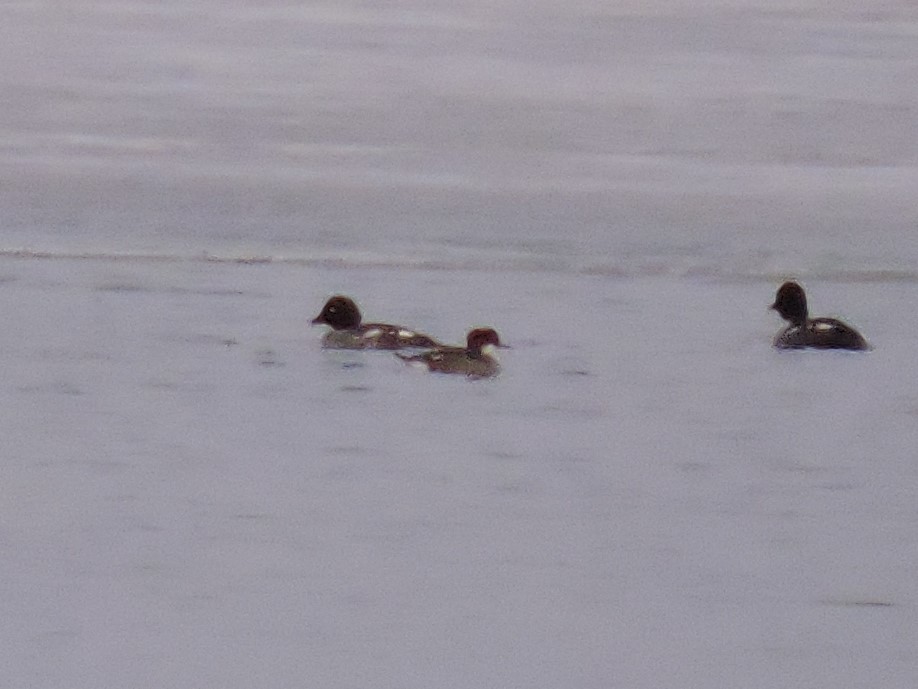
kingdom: Animalia
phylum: Chordata
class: Aves
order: Anseriformes
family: Anatidae
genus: Mergellus
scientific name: Mergellus albellus
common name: Smew
